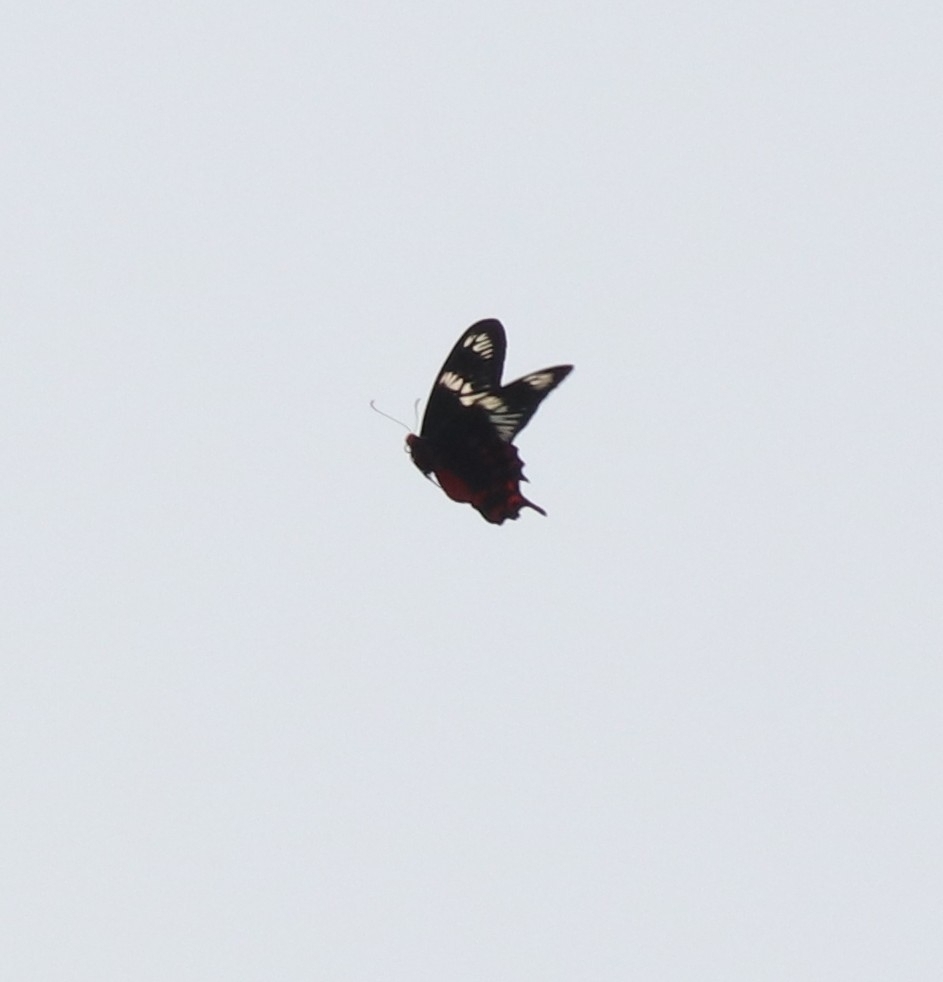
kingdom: Animalia
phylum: Arthropoda
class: Insecta
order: Lepidoptera
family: Papilionidae
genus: Pachliopta
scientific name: Pachliopta hector
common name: Crimson rose
